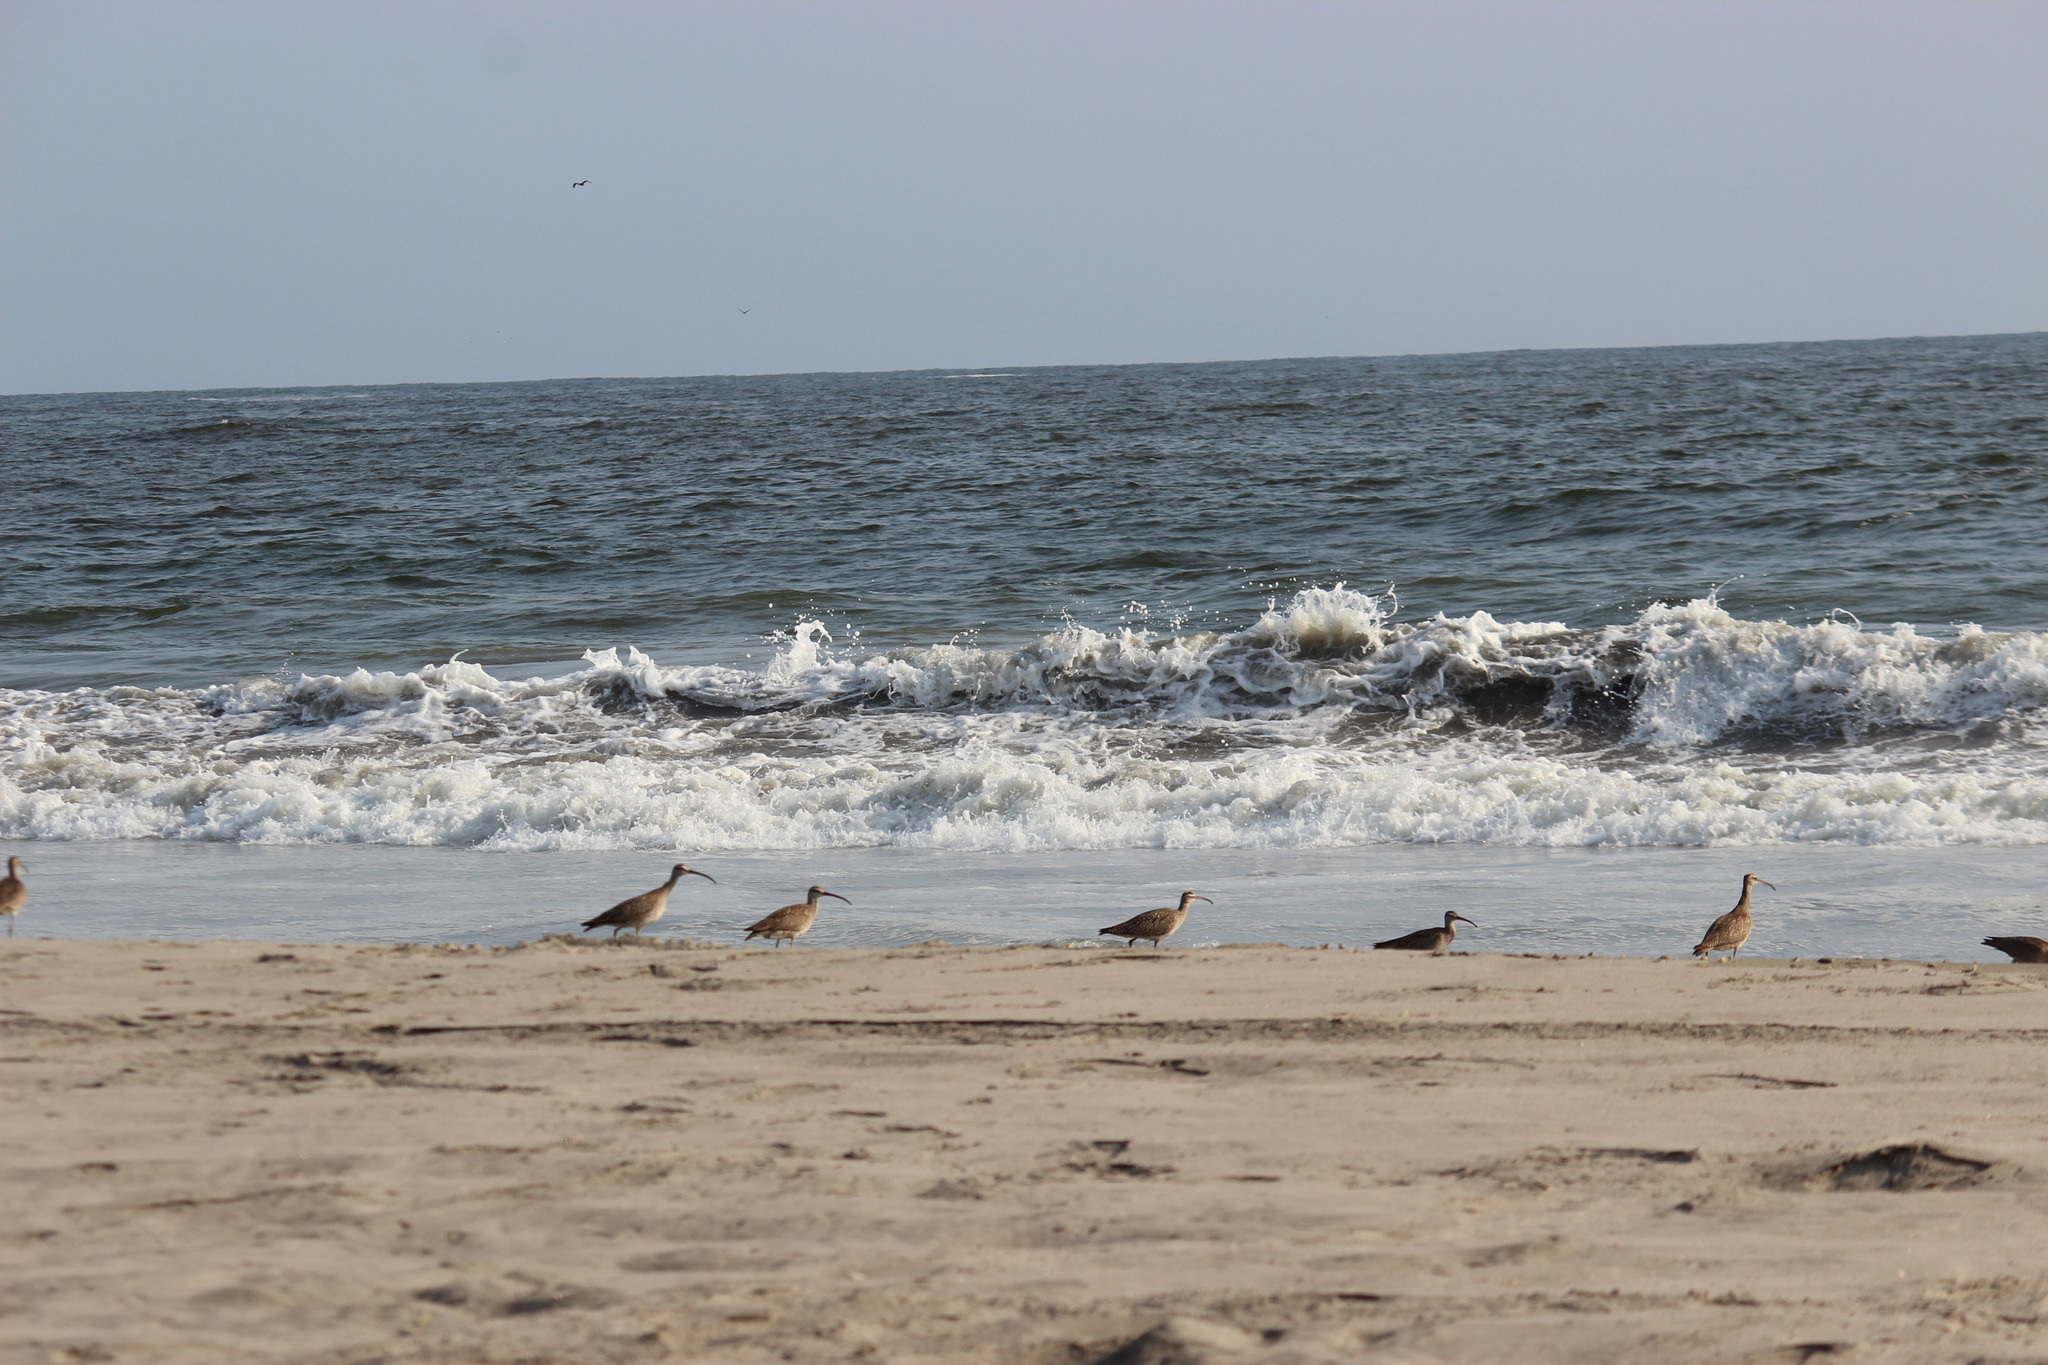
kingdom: Animalia
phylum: Chordata
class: Aves
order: Charadriiformes
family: Scolopacidae
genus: Numenius
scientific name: Numenius phaeopus
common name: Whimbrel
